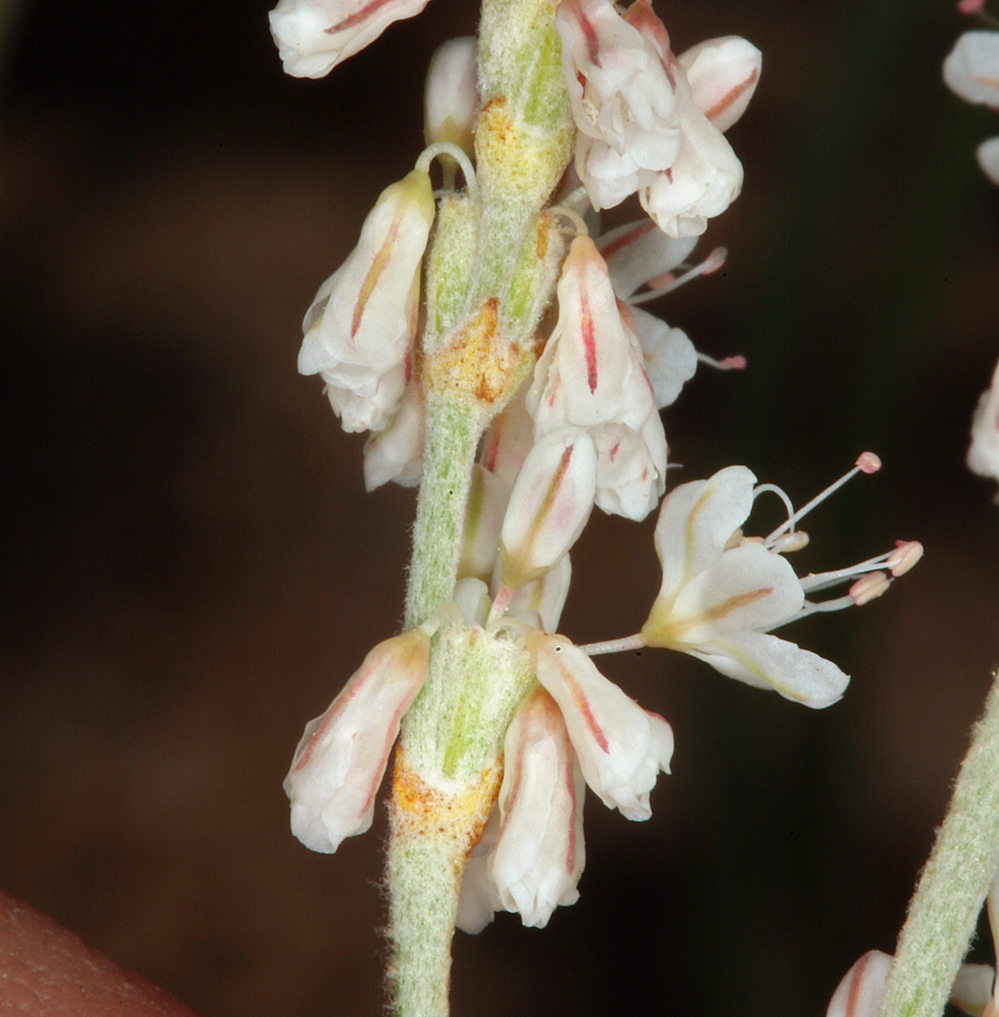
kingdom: Plantae
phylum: Tracheophyta
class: Magnoliopsida
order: Caryophyllales
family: Polygonaceae
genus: Eriogonum
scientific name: Eriogonum wrightii
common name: Bastard-sage
